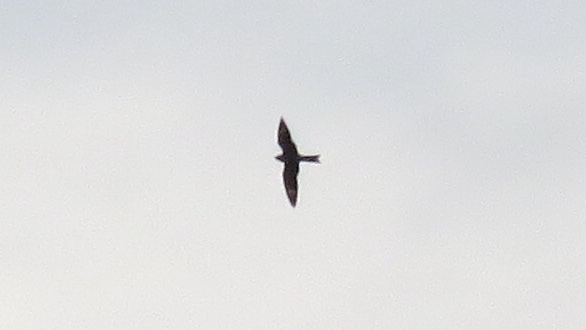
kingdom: Animalia
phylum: Chordata
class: Aves
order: Caprimulgiformes
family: Caprimulgidae
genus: Chordeiles
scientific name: Chordeiles minor
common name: Common nighthawk
